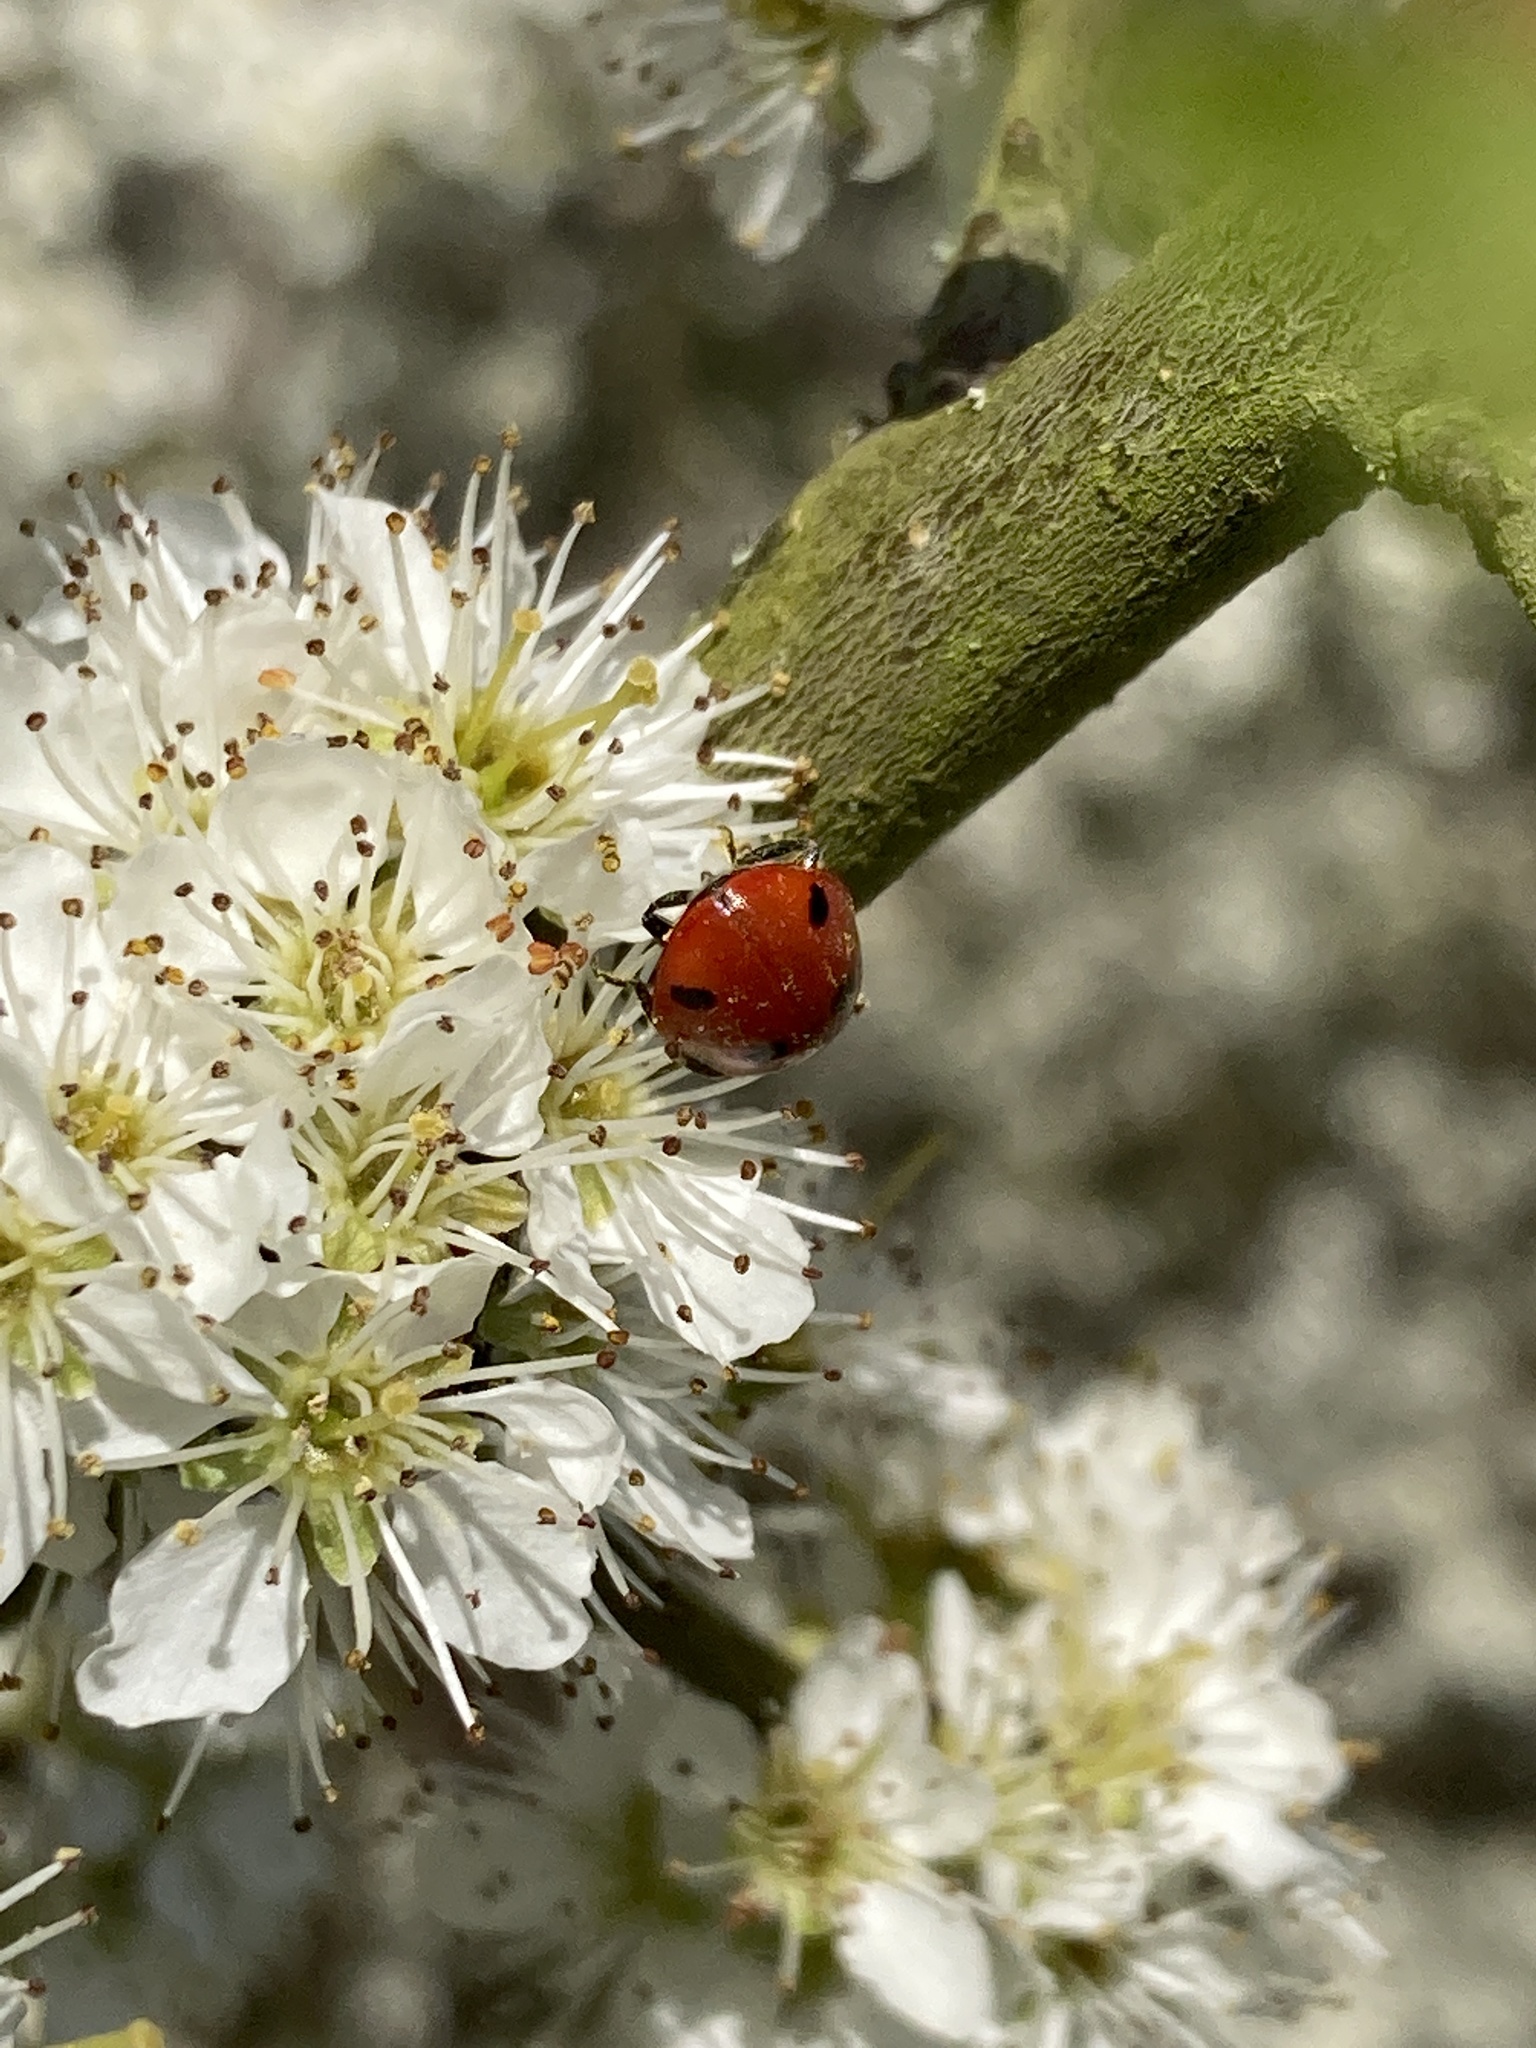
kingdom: Animalia
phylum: Arthropoda
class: Insecta
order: Coleoptera
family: Coccinellidae
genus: Coccinella
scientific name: Coccinella septempunctata
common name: Sevenspotted lady beetle
